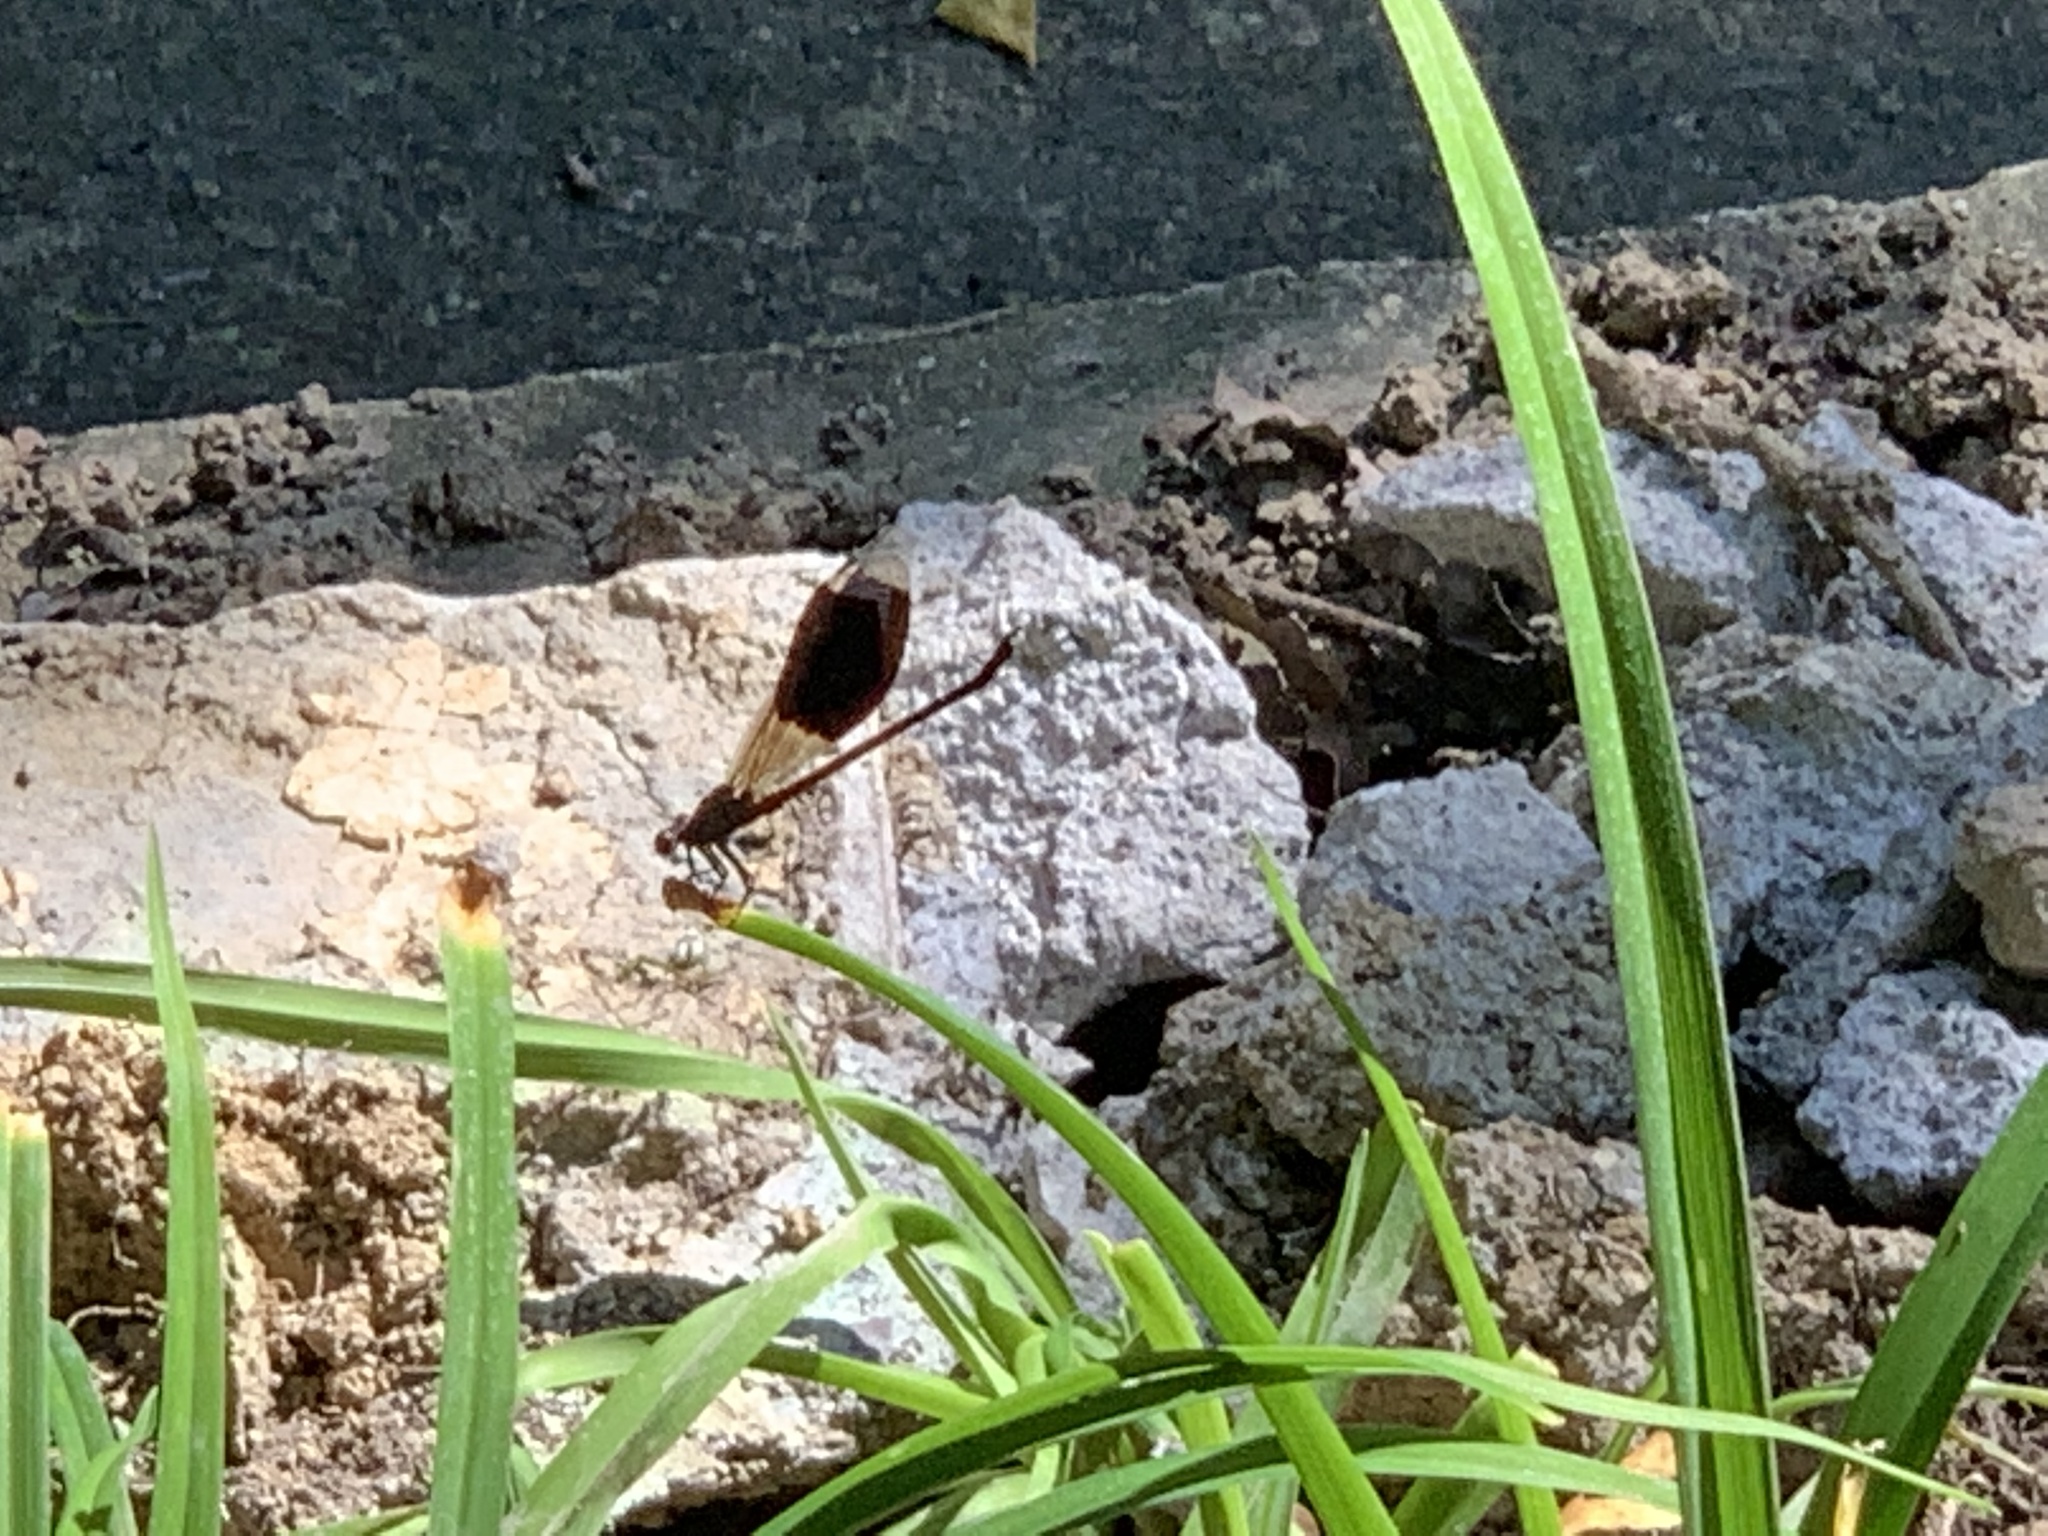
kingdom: Animalia
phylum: Arthropoda
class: Insecta
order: Odonata
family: Euphaeidae
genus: Euphaea
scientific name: Euphaea formosa
